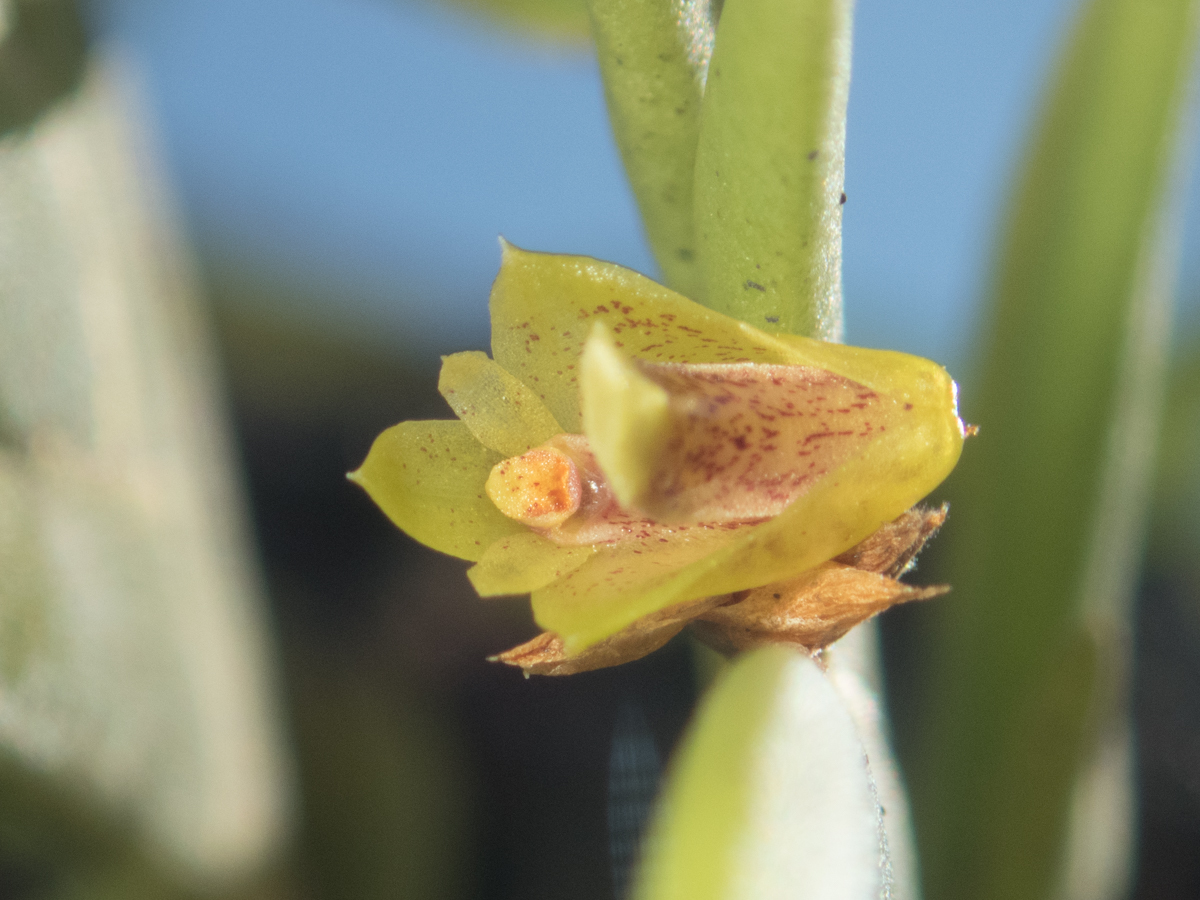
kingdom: Plantae
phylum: Tracheophyta
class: Liliopsida
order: Asparagales
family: Orchidaceae
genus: Oxystophyllum
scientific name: Oxystophyllum carnosum
